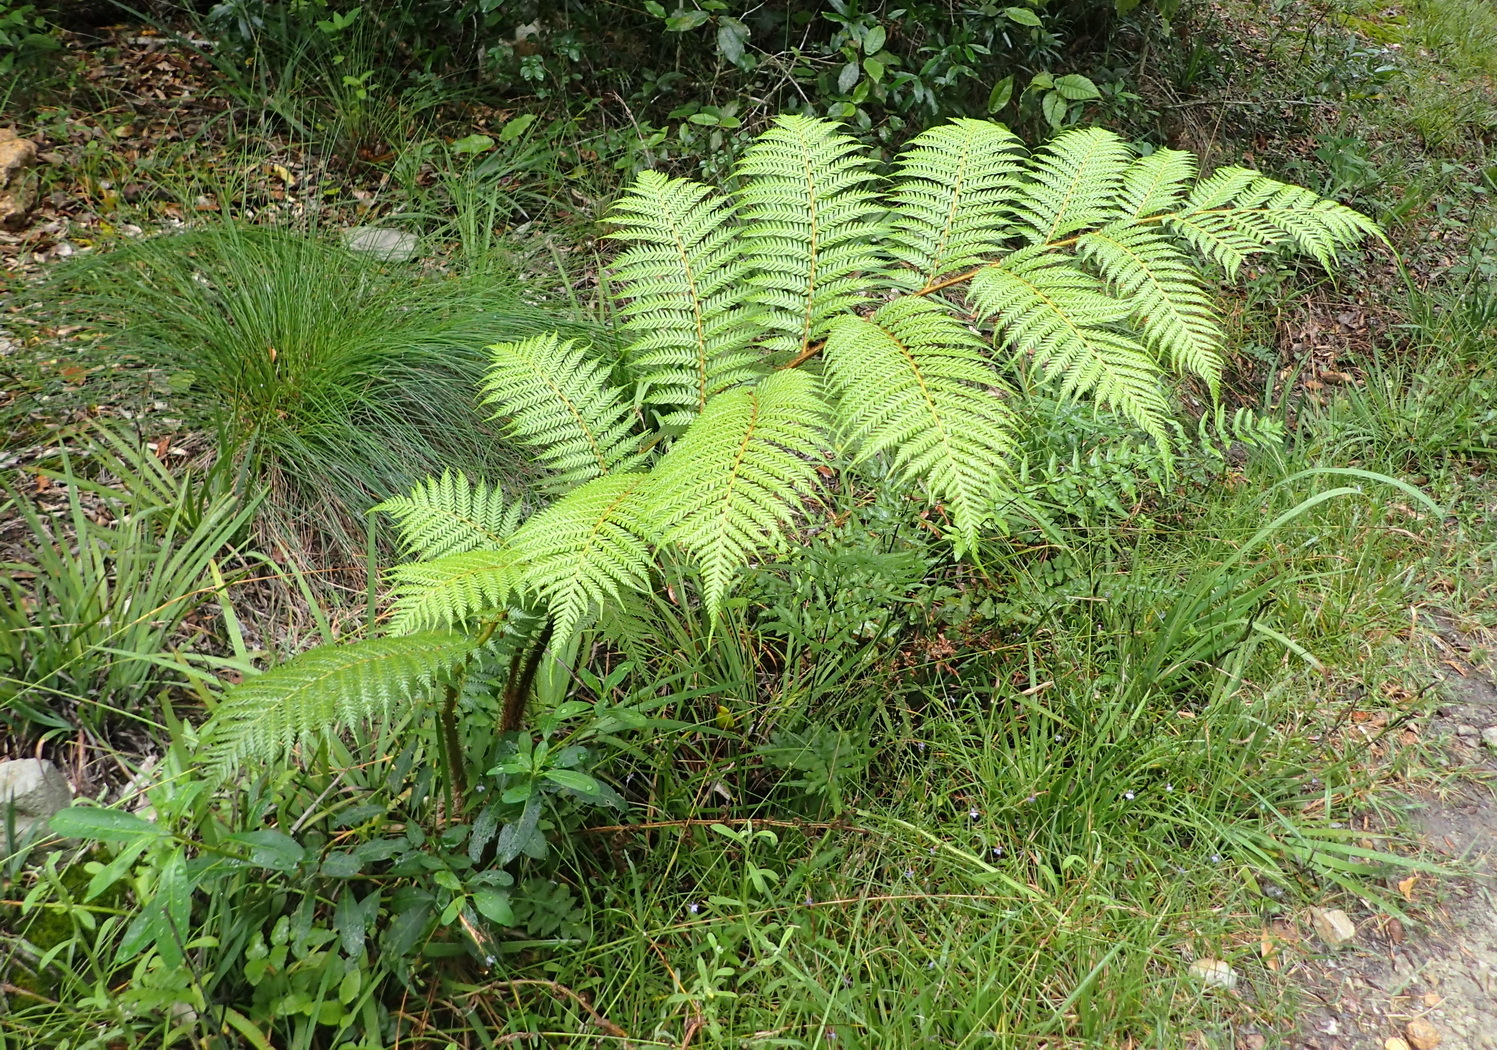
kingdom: Plantae
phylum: Tracheophyta
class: Polypodiopsida
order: Cyatheales
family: Cyatheaceae
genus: Sphaeropteris
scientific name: Sphaeropteris cooperi
